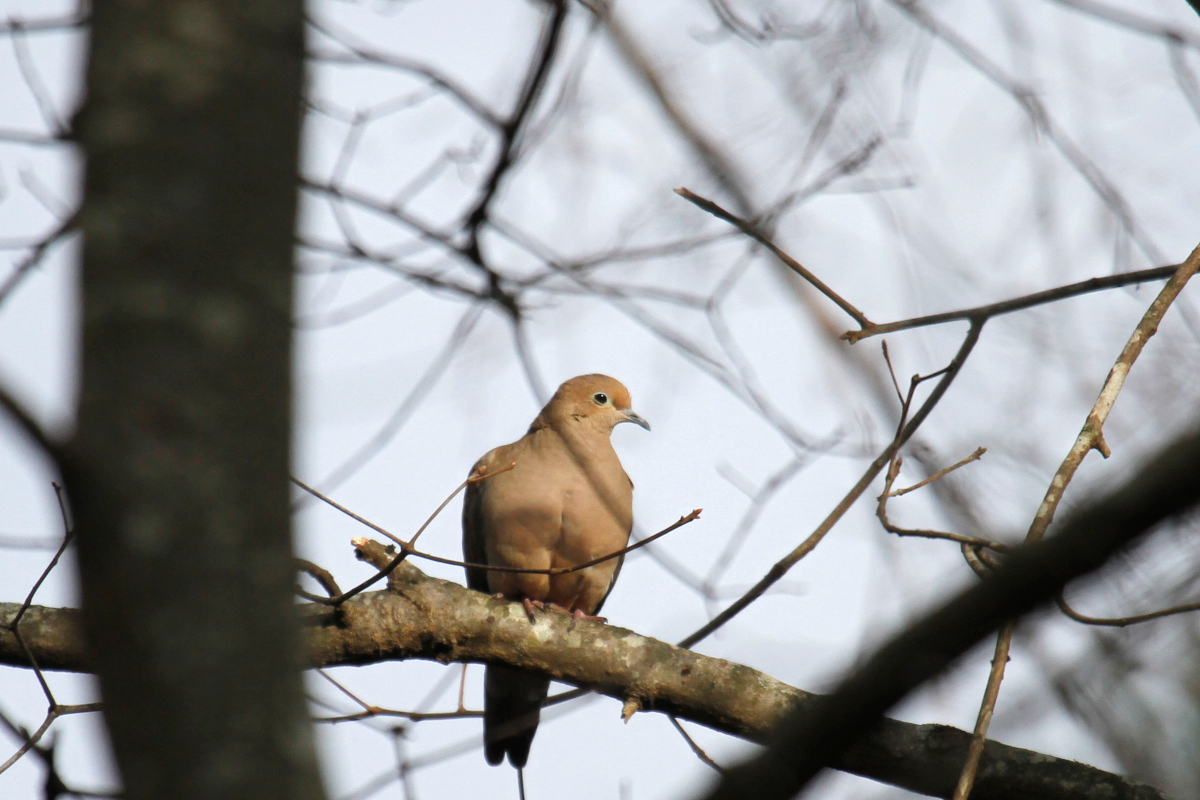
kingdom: Animalia
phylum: Chordata
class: Aves
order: Columbiformes
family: Columbidae
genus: Zenaida
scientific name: Zenaida macroura
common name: Mourning dove
